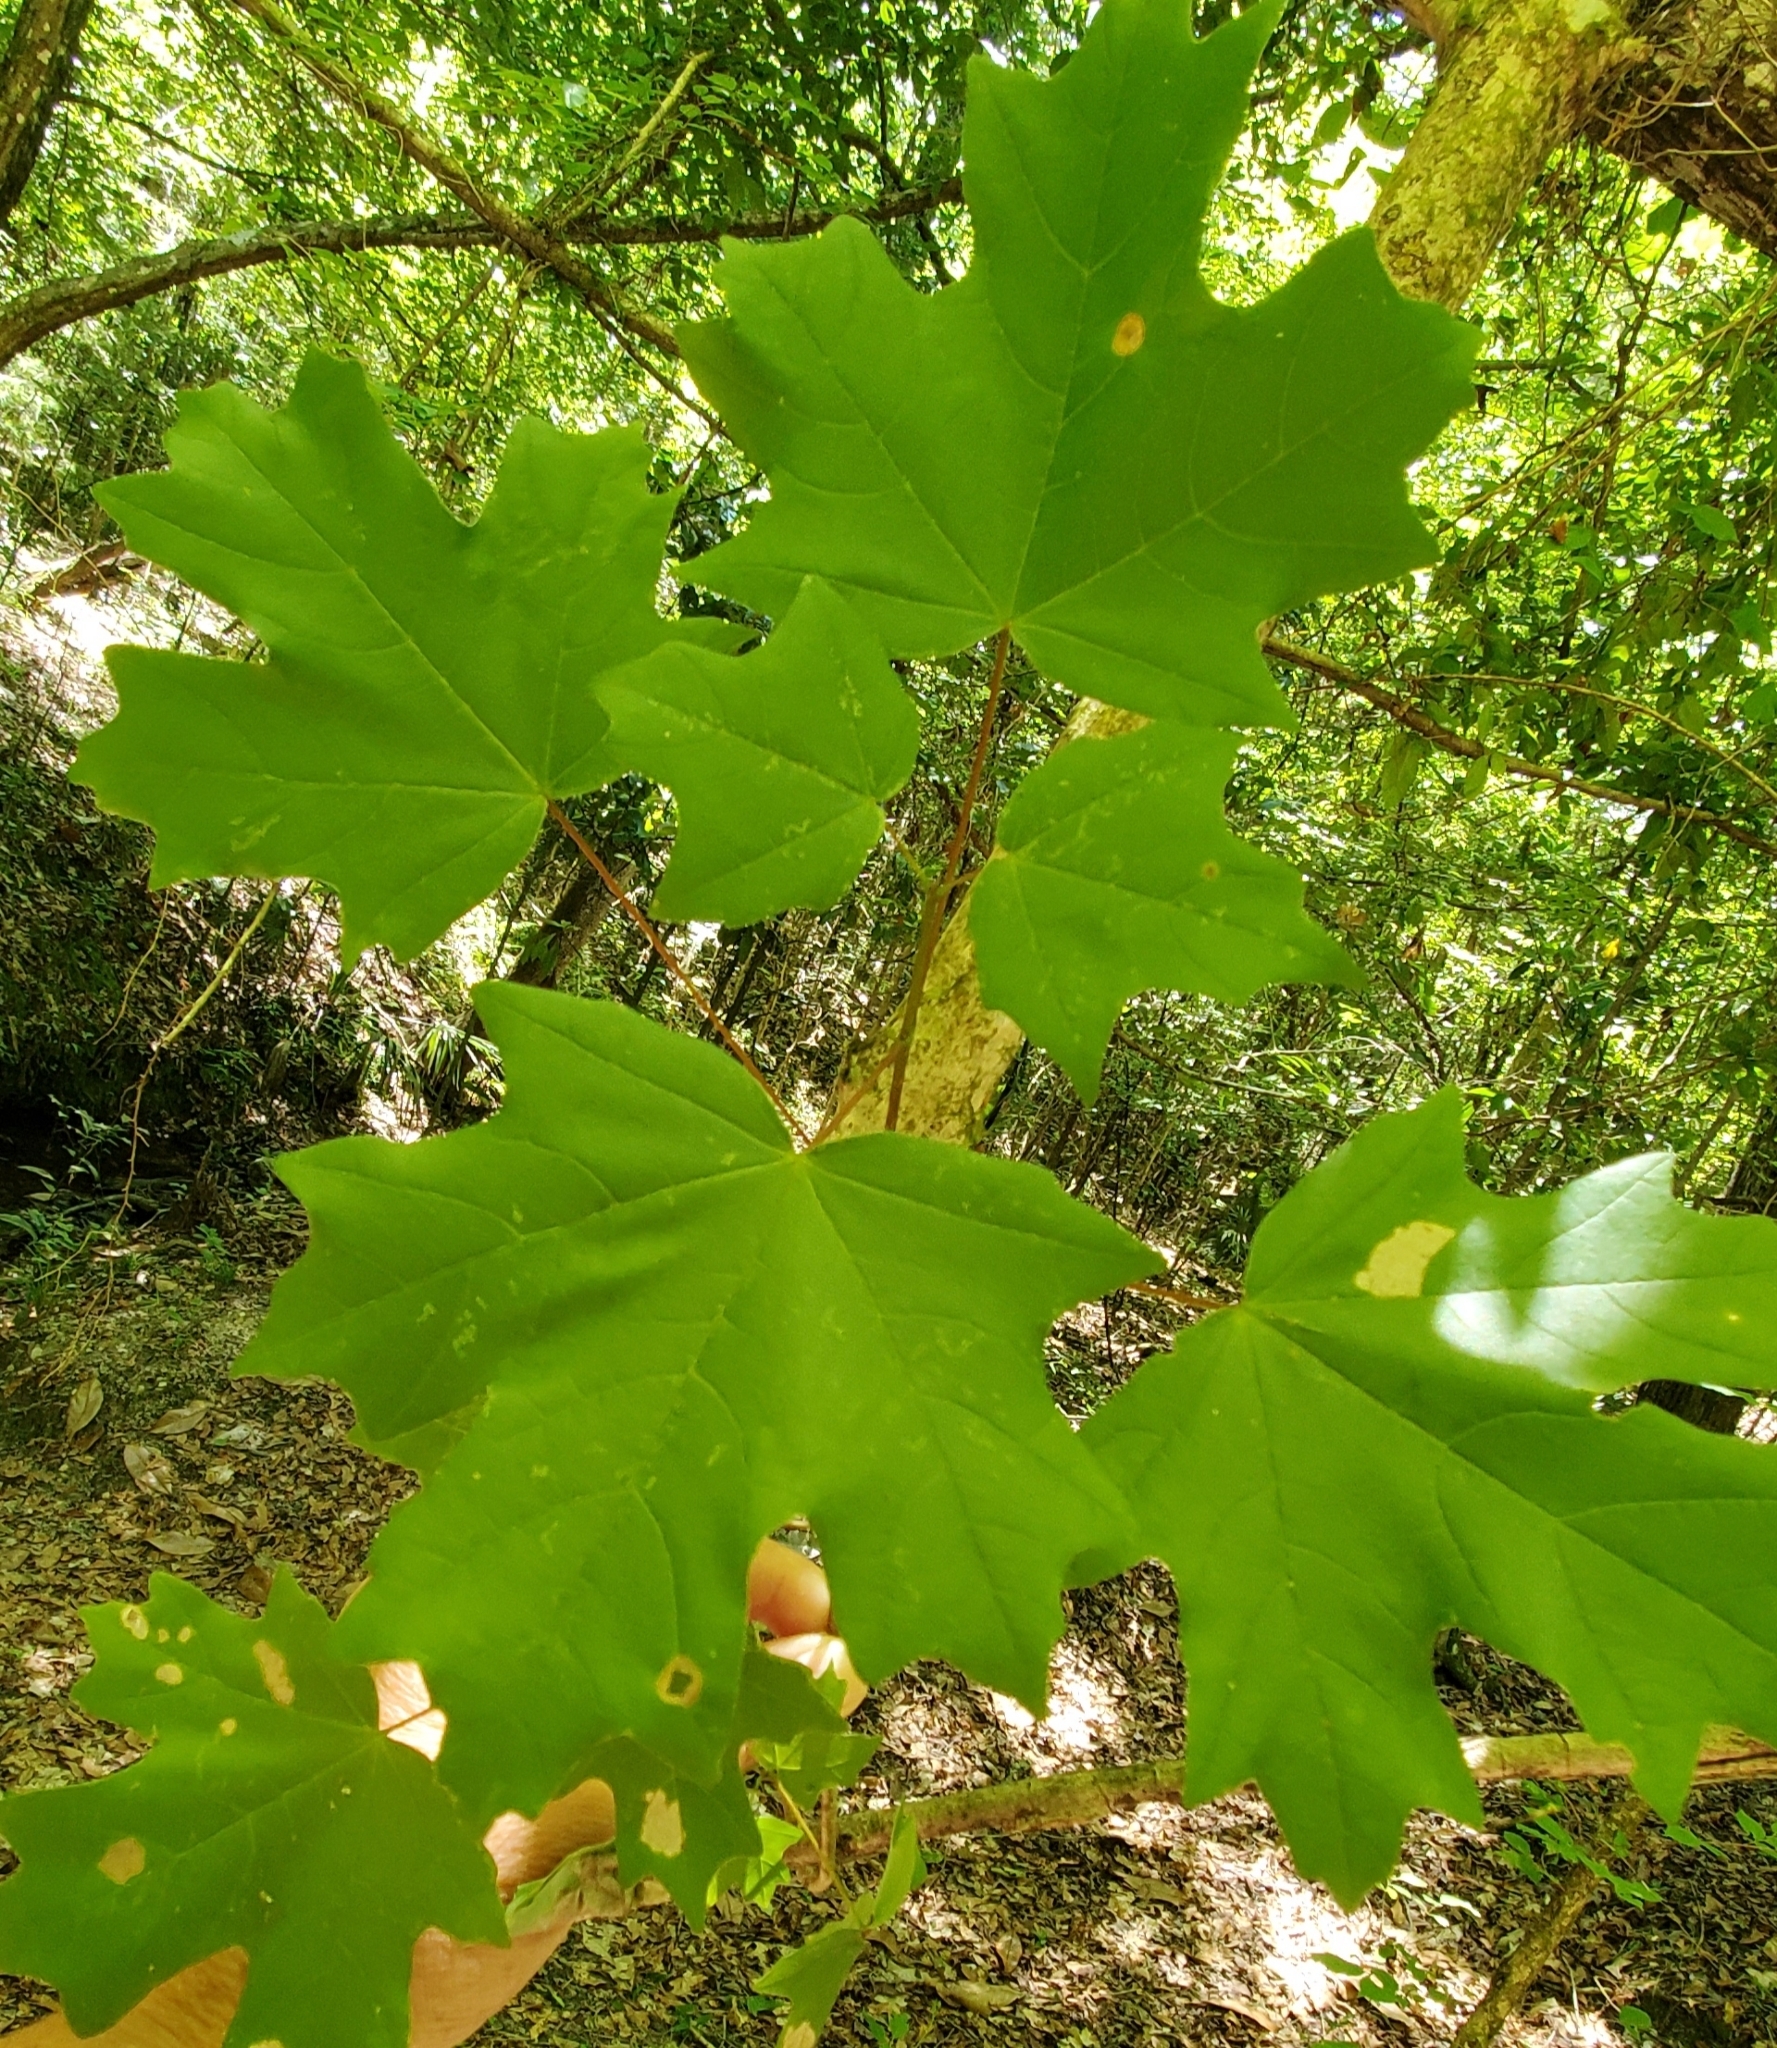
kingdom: Plantae
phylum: Tracheophyta
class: Magnoliopsida
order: Sapindales
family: Sapindaceae
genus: Acer
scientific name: Acer floridanum
